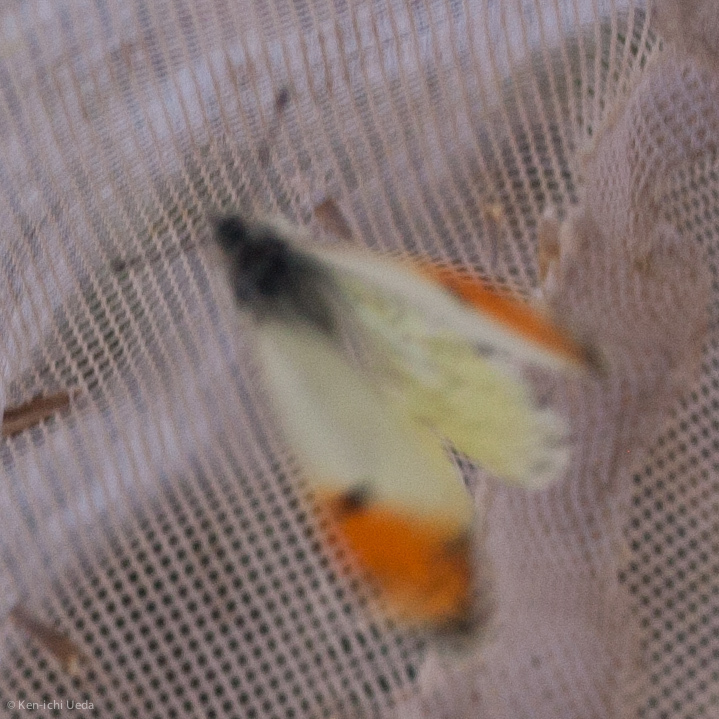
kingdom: Animalia
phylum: Arthropoda
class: Insecta
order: Lepidoptera
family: Pieridae
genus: Anthocharis
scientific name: Anthocharis sara
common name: Sara's orangetip
